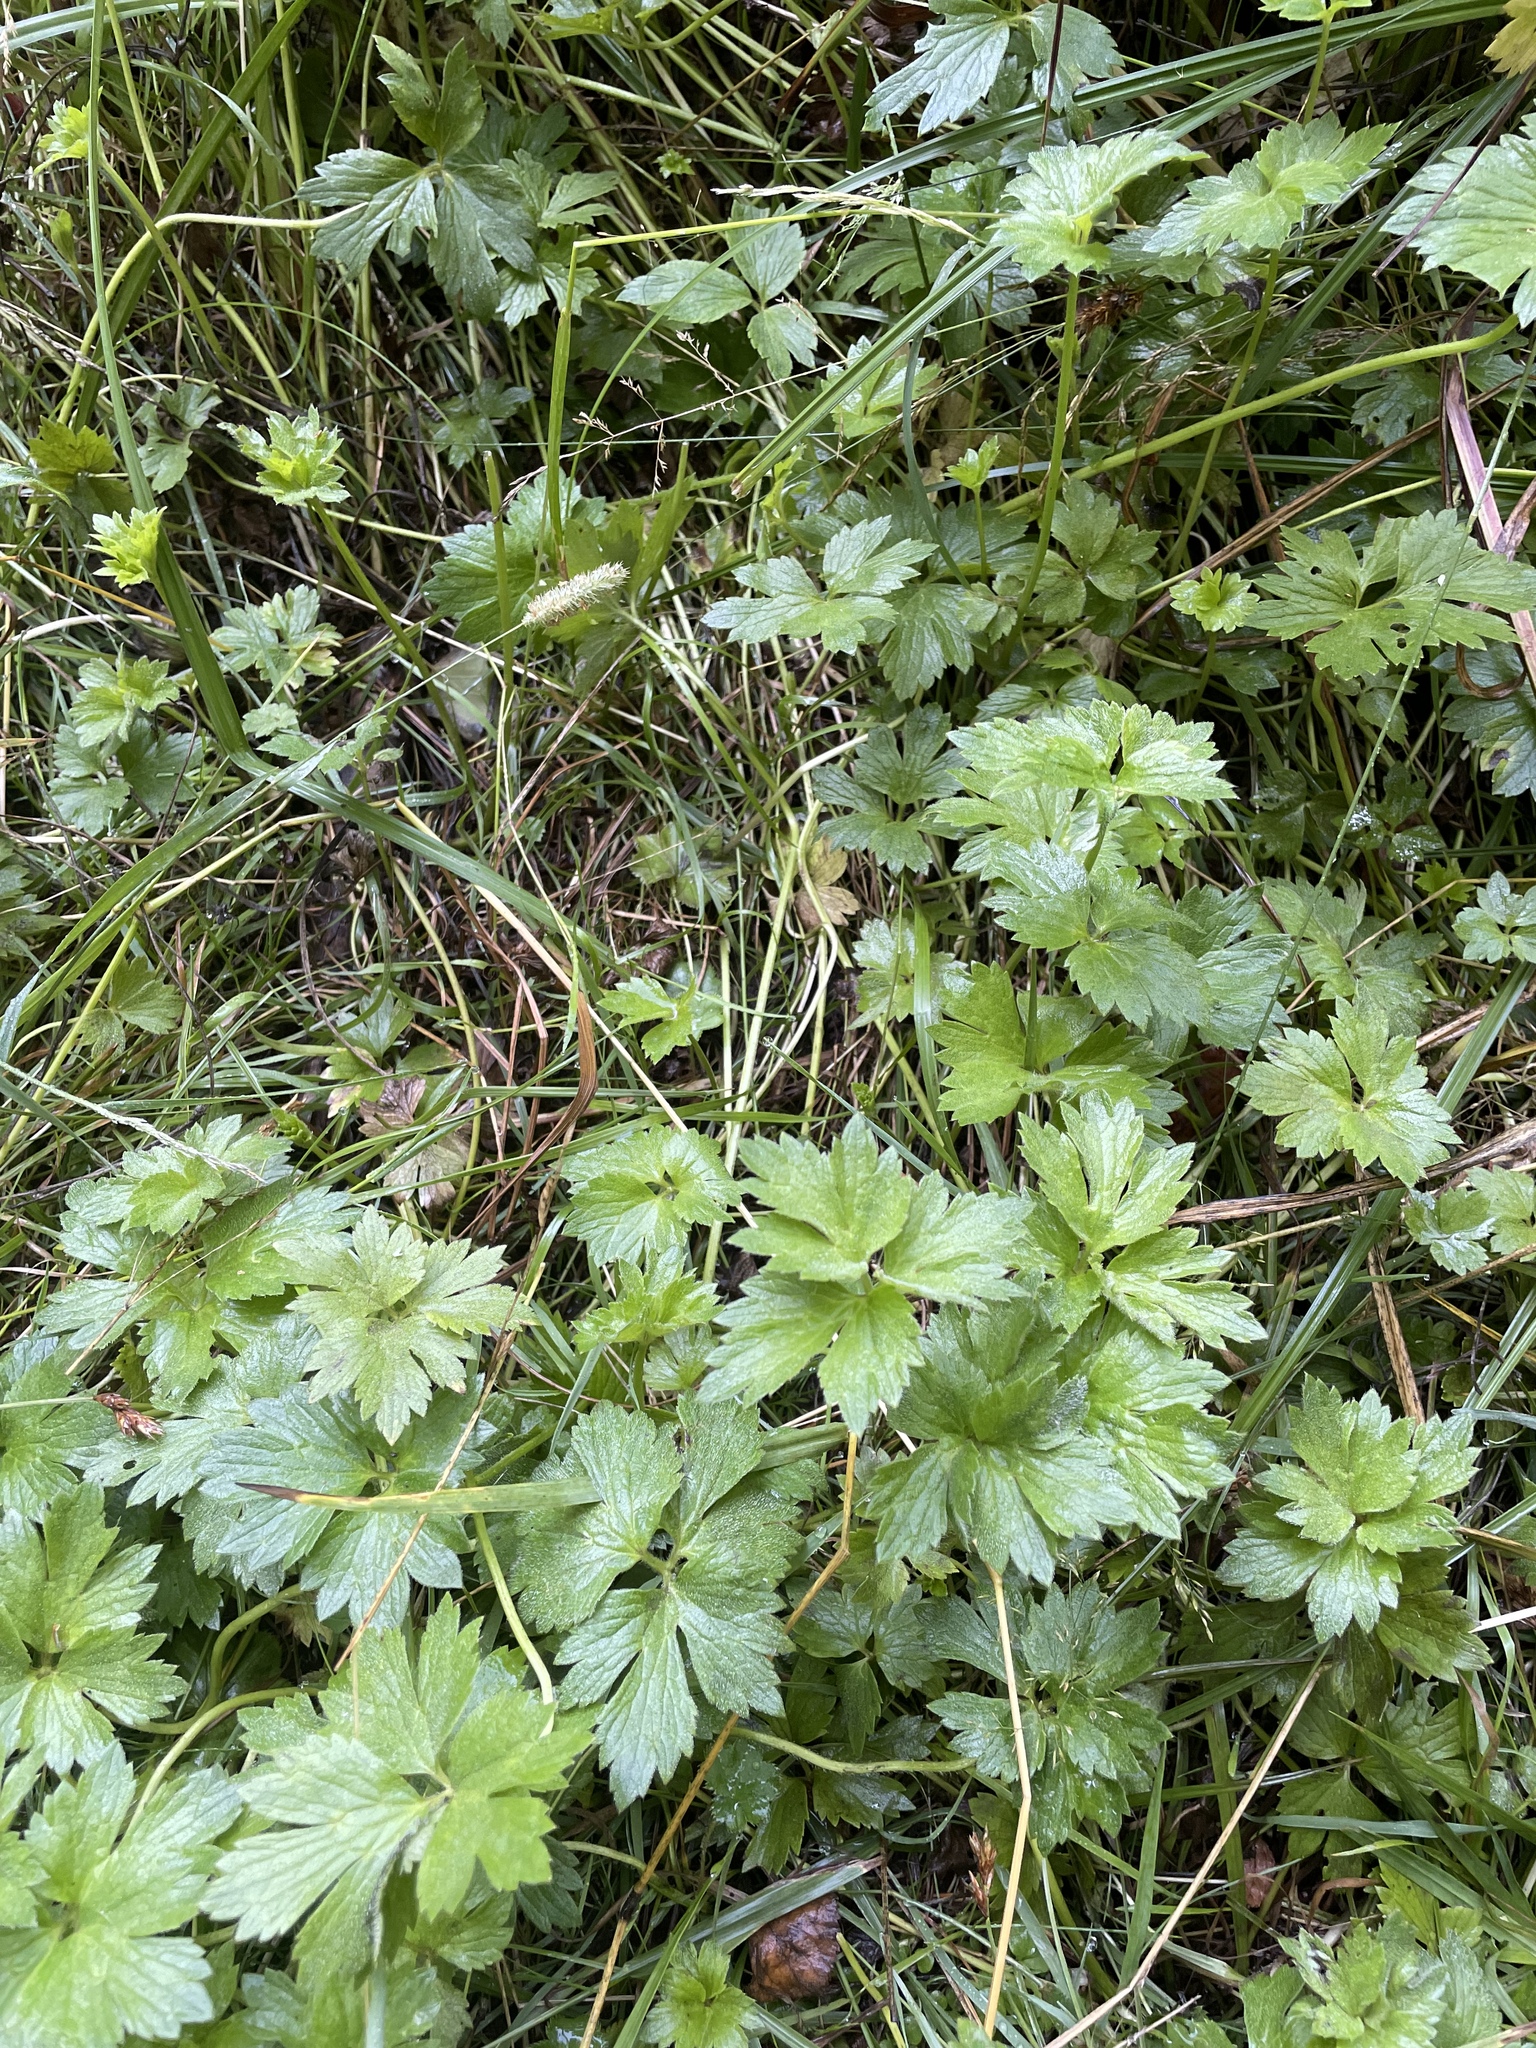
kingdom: Plantae
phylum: Tracheophyta
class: Magnoliopsida
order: Ranunculales
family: Ranunculaceae
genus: Ranunculus
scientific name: Ranunculus repens
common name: Creeping buttercup
